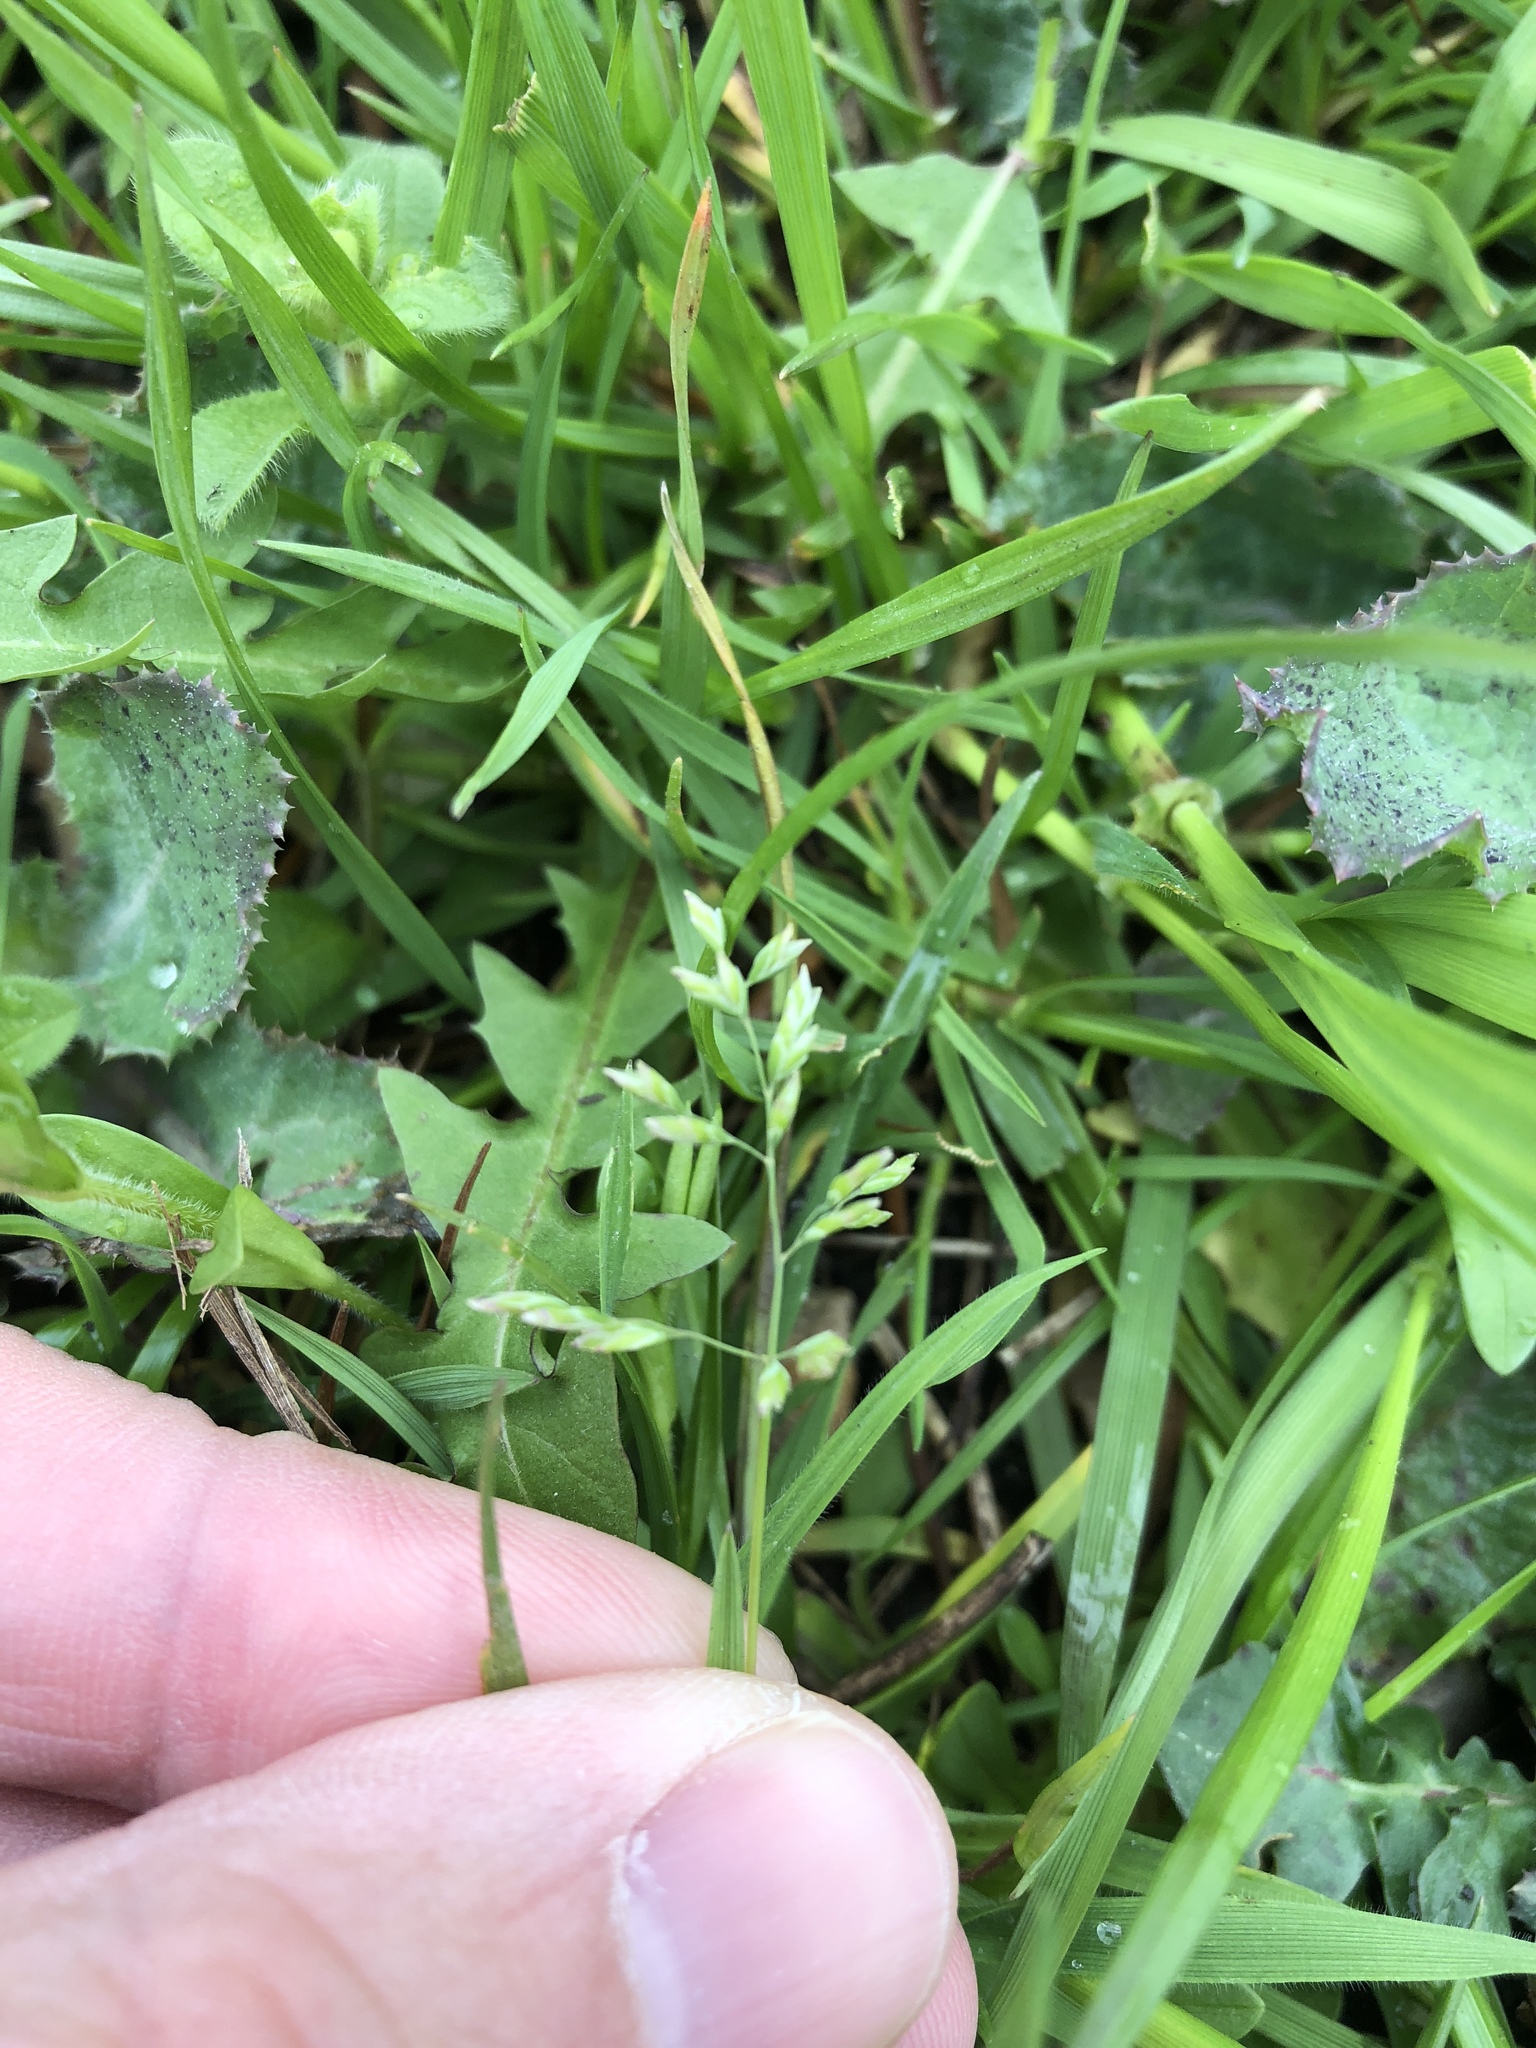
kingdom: Plantae
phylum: Tracheophyta
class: Liliopsida
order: Poales
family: Poaceae
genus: Poa
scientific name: Poa annua
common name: Annual bluegrass
